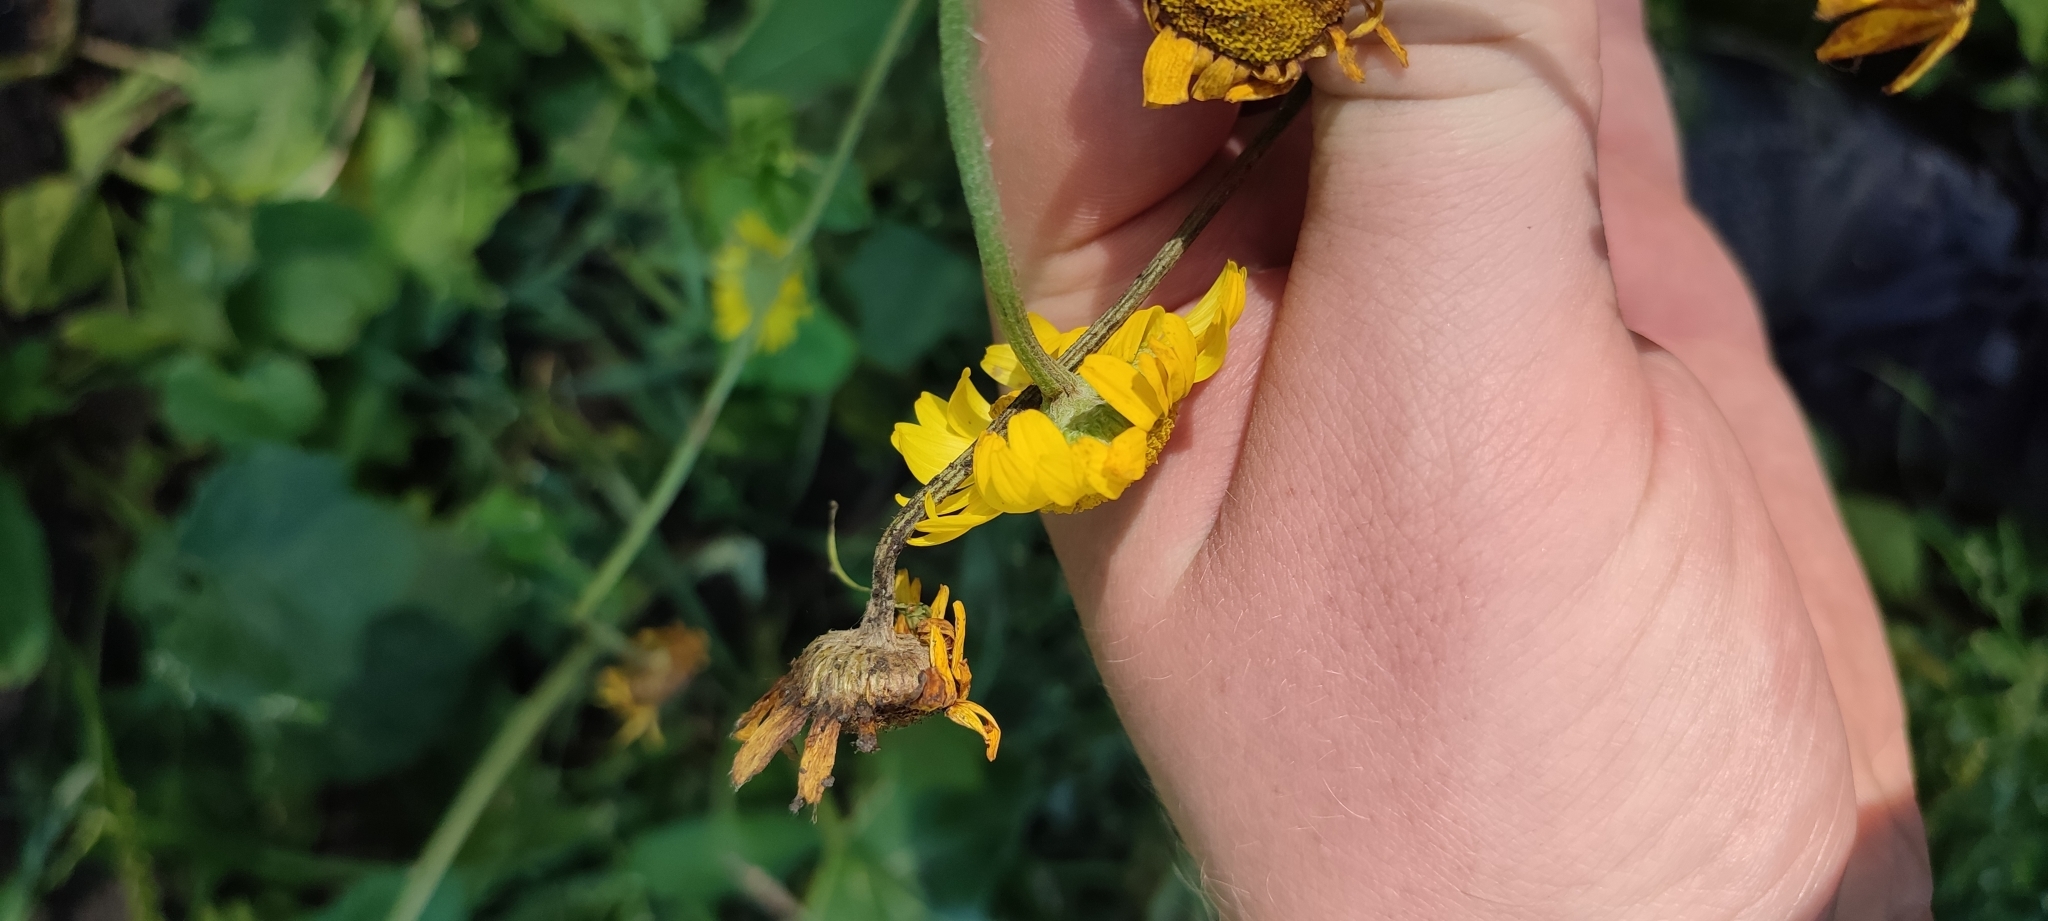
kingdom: Plantae
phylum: Tracheophyta
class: Magnoliopsida
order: Asterales
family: Asteraceae
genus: Cota
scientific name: Cota tinctoria
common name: Golden chamomile
